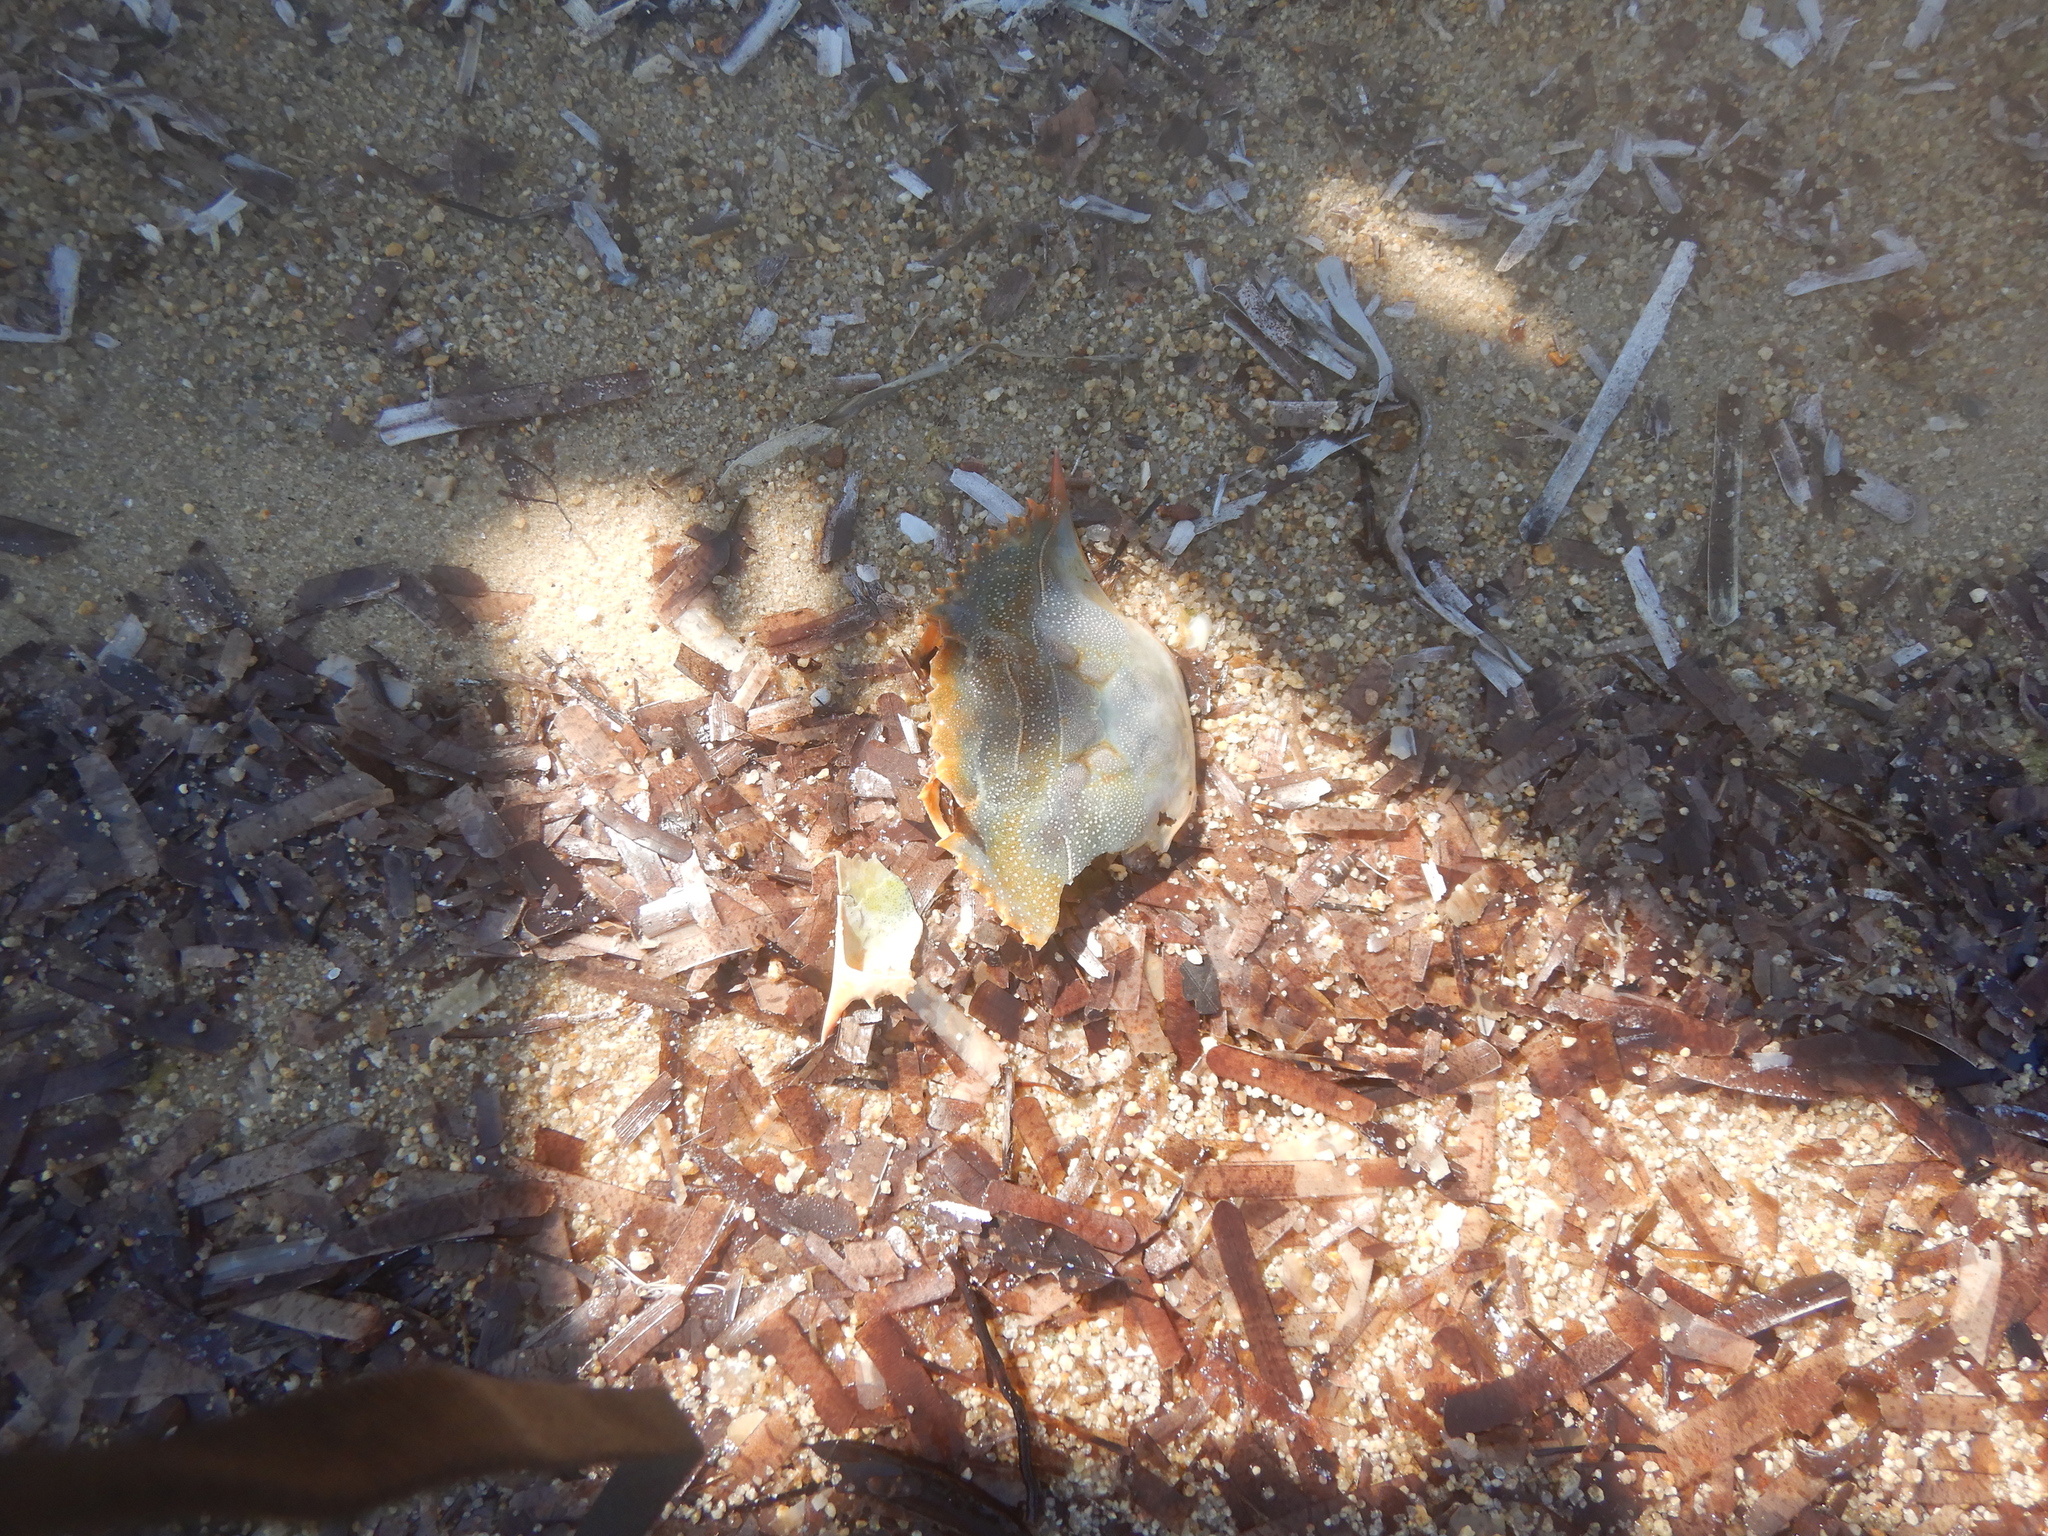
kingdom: Animalia
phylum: Arthropoda
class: Malacostraca
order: Decapoda
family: Portunidae
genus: Callinectes
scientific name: Callinectes sapidus
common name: Blue crab
